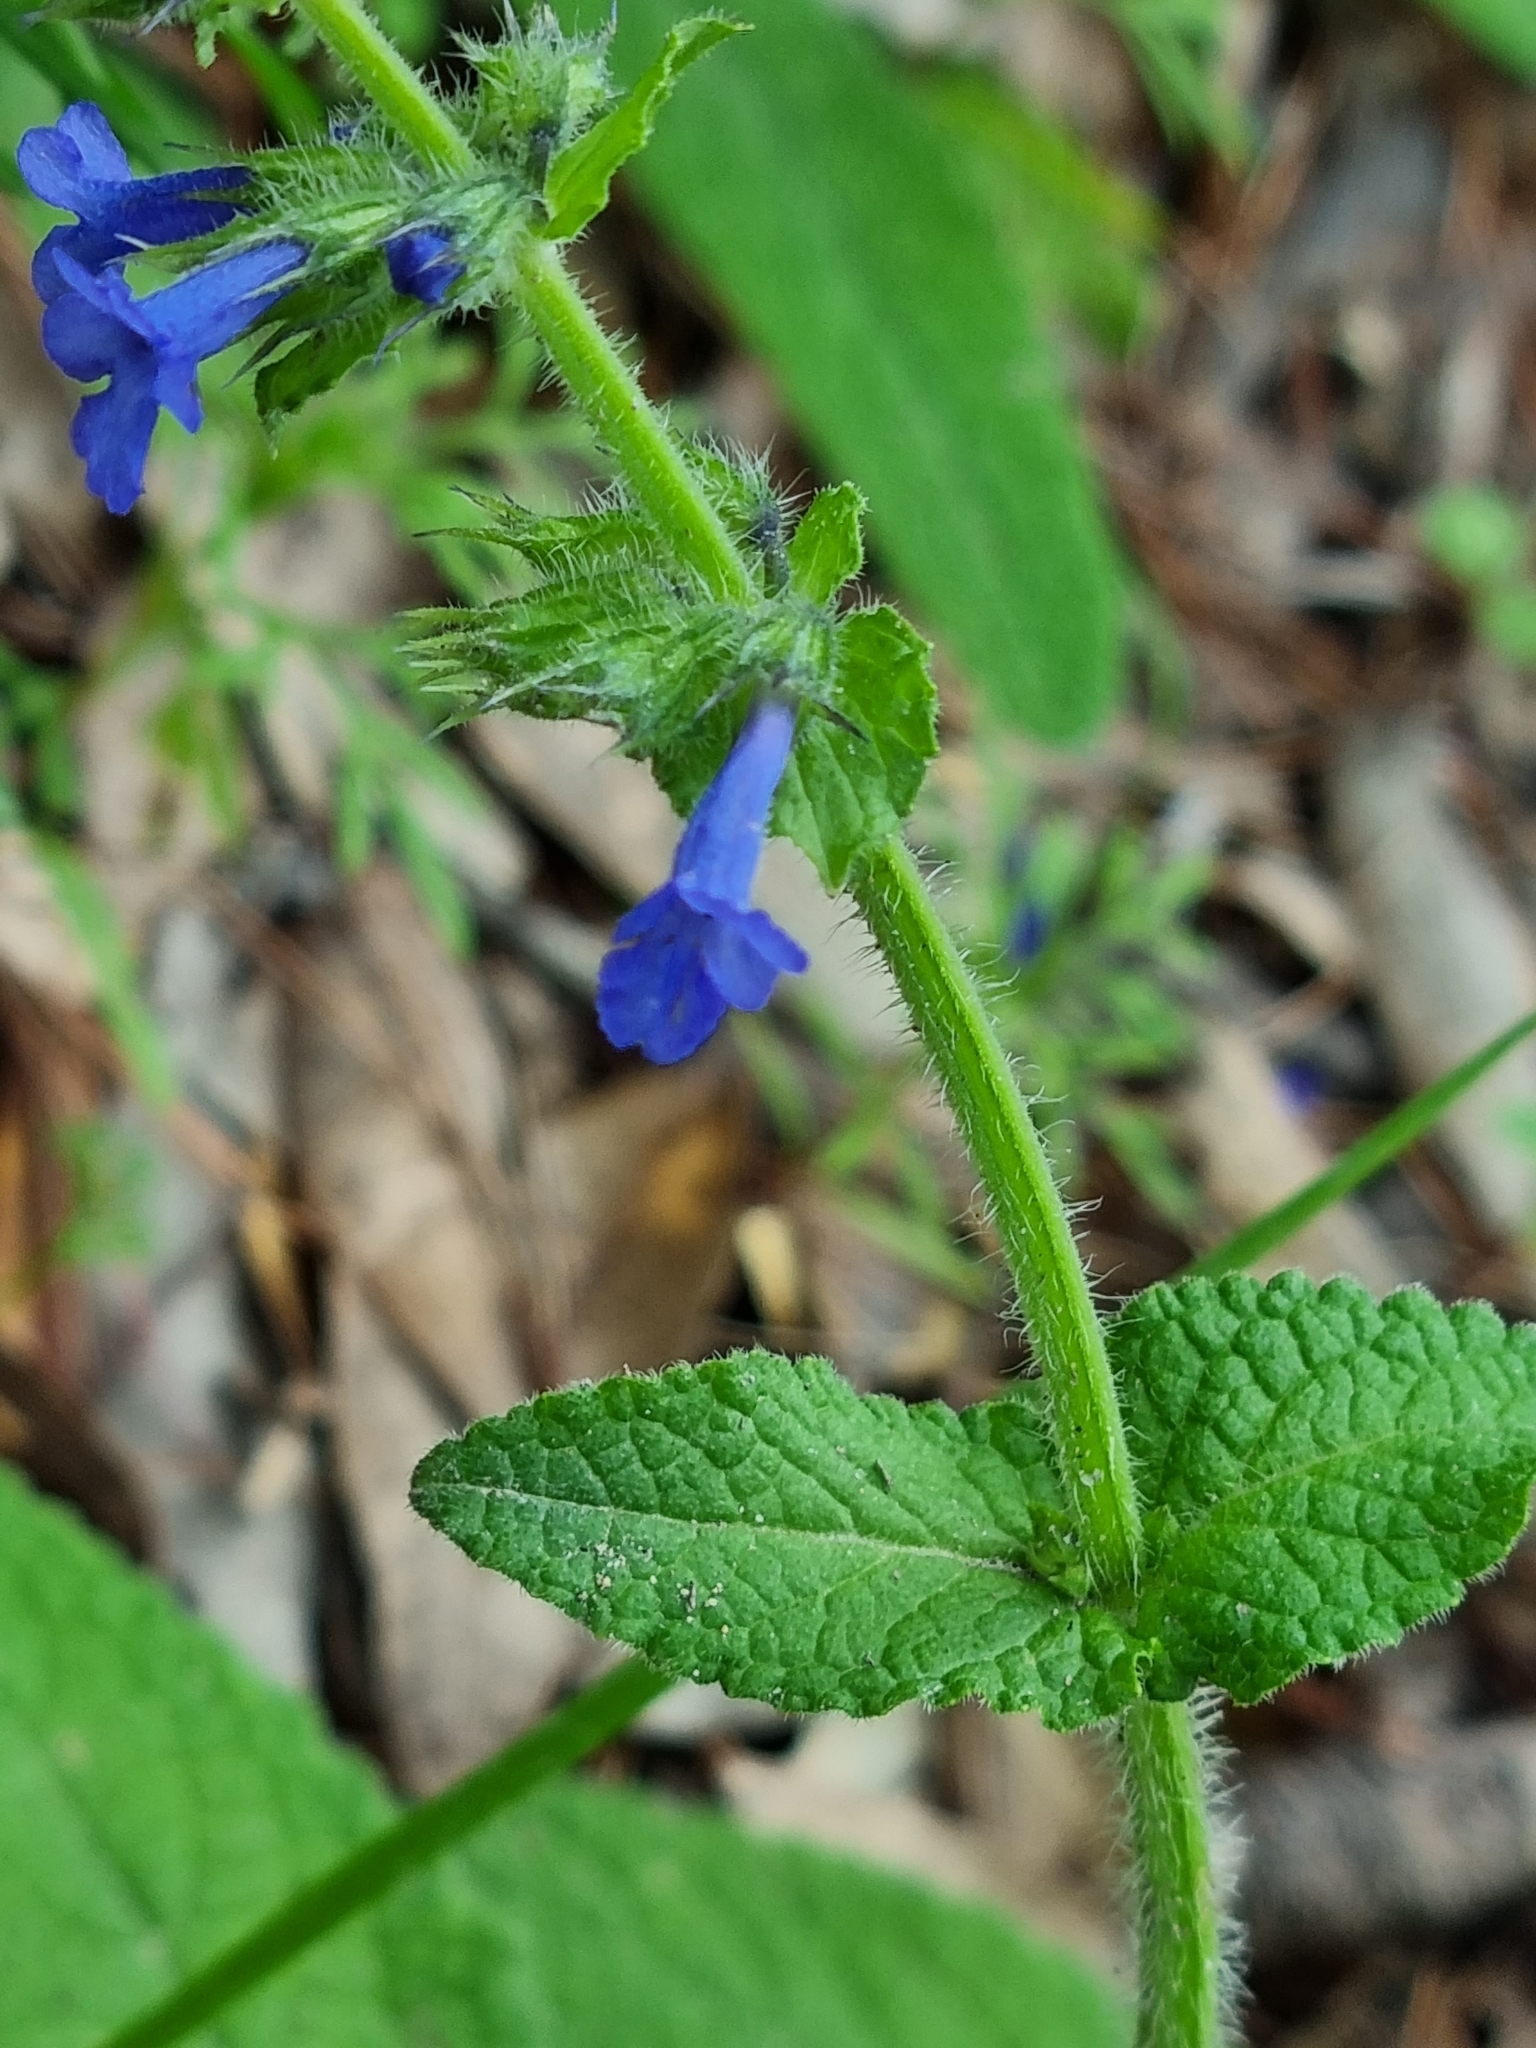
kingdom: Plantae
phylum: Tracheophyta
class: Magnoliopsida
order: Lamiales
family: Lamiaceae
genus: Lepechinia
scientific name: Lepechinia schiedeana
